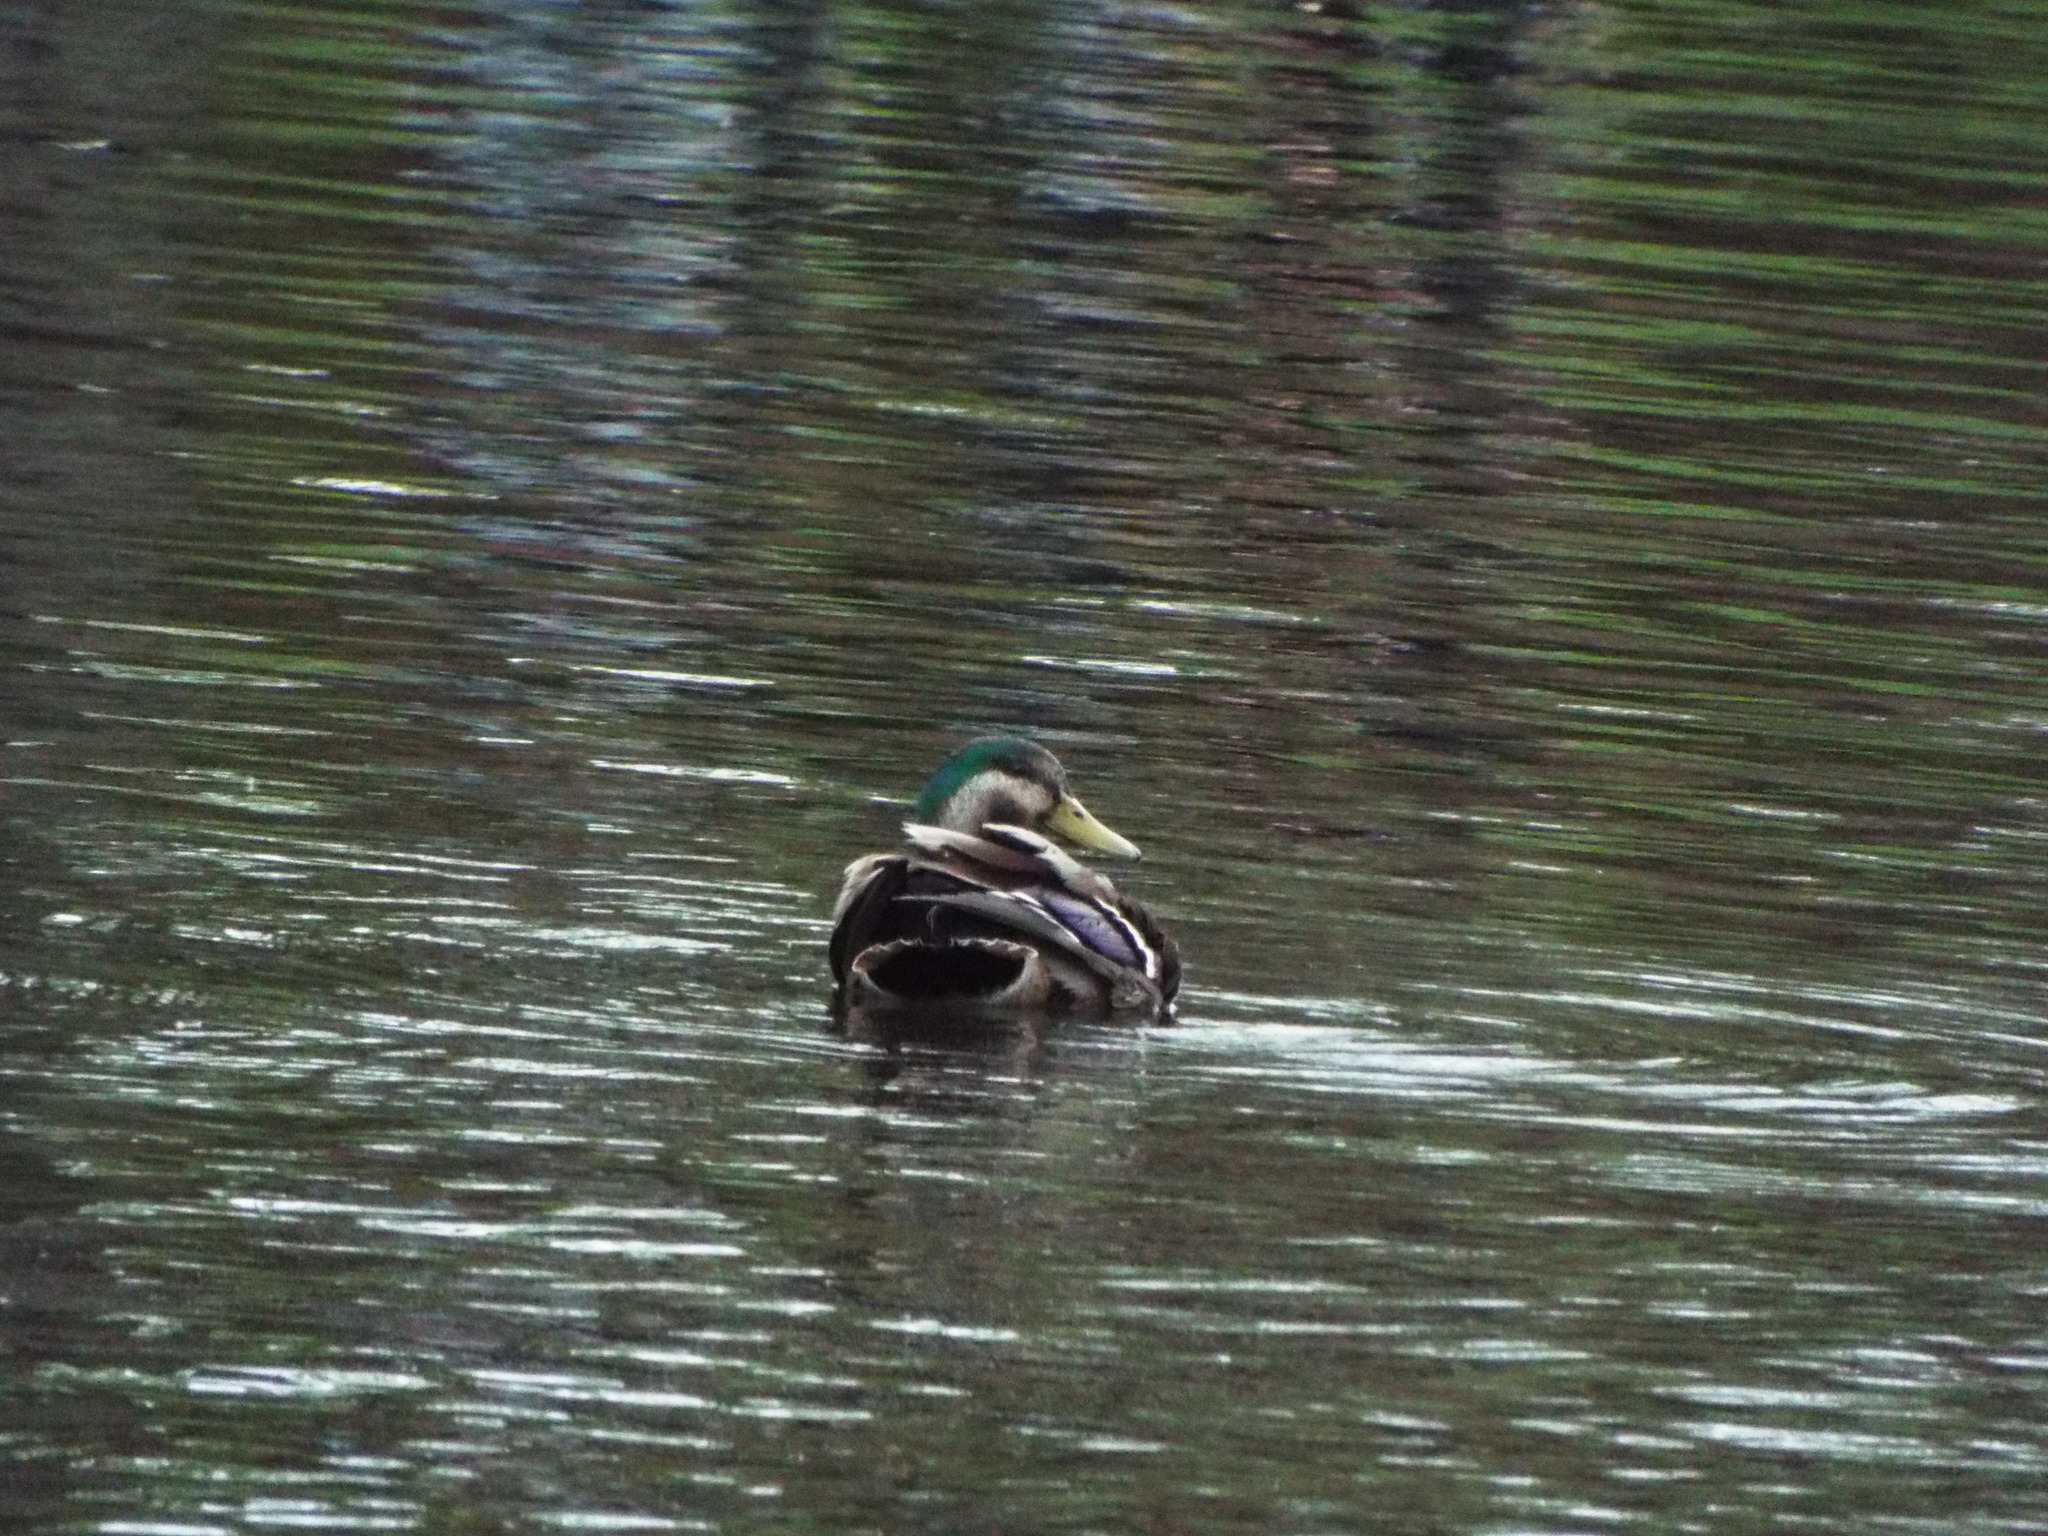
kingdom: Animalia
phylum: Chordata
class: Aves
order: Anseriformes
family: Anatidae
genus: Anas
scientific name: Anas
